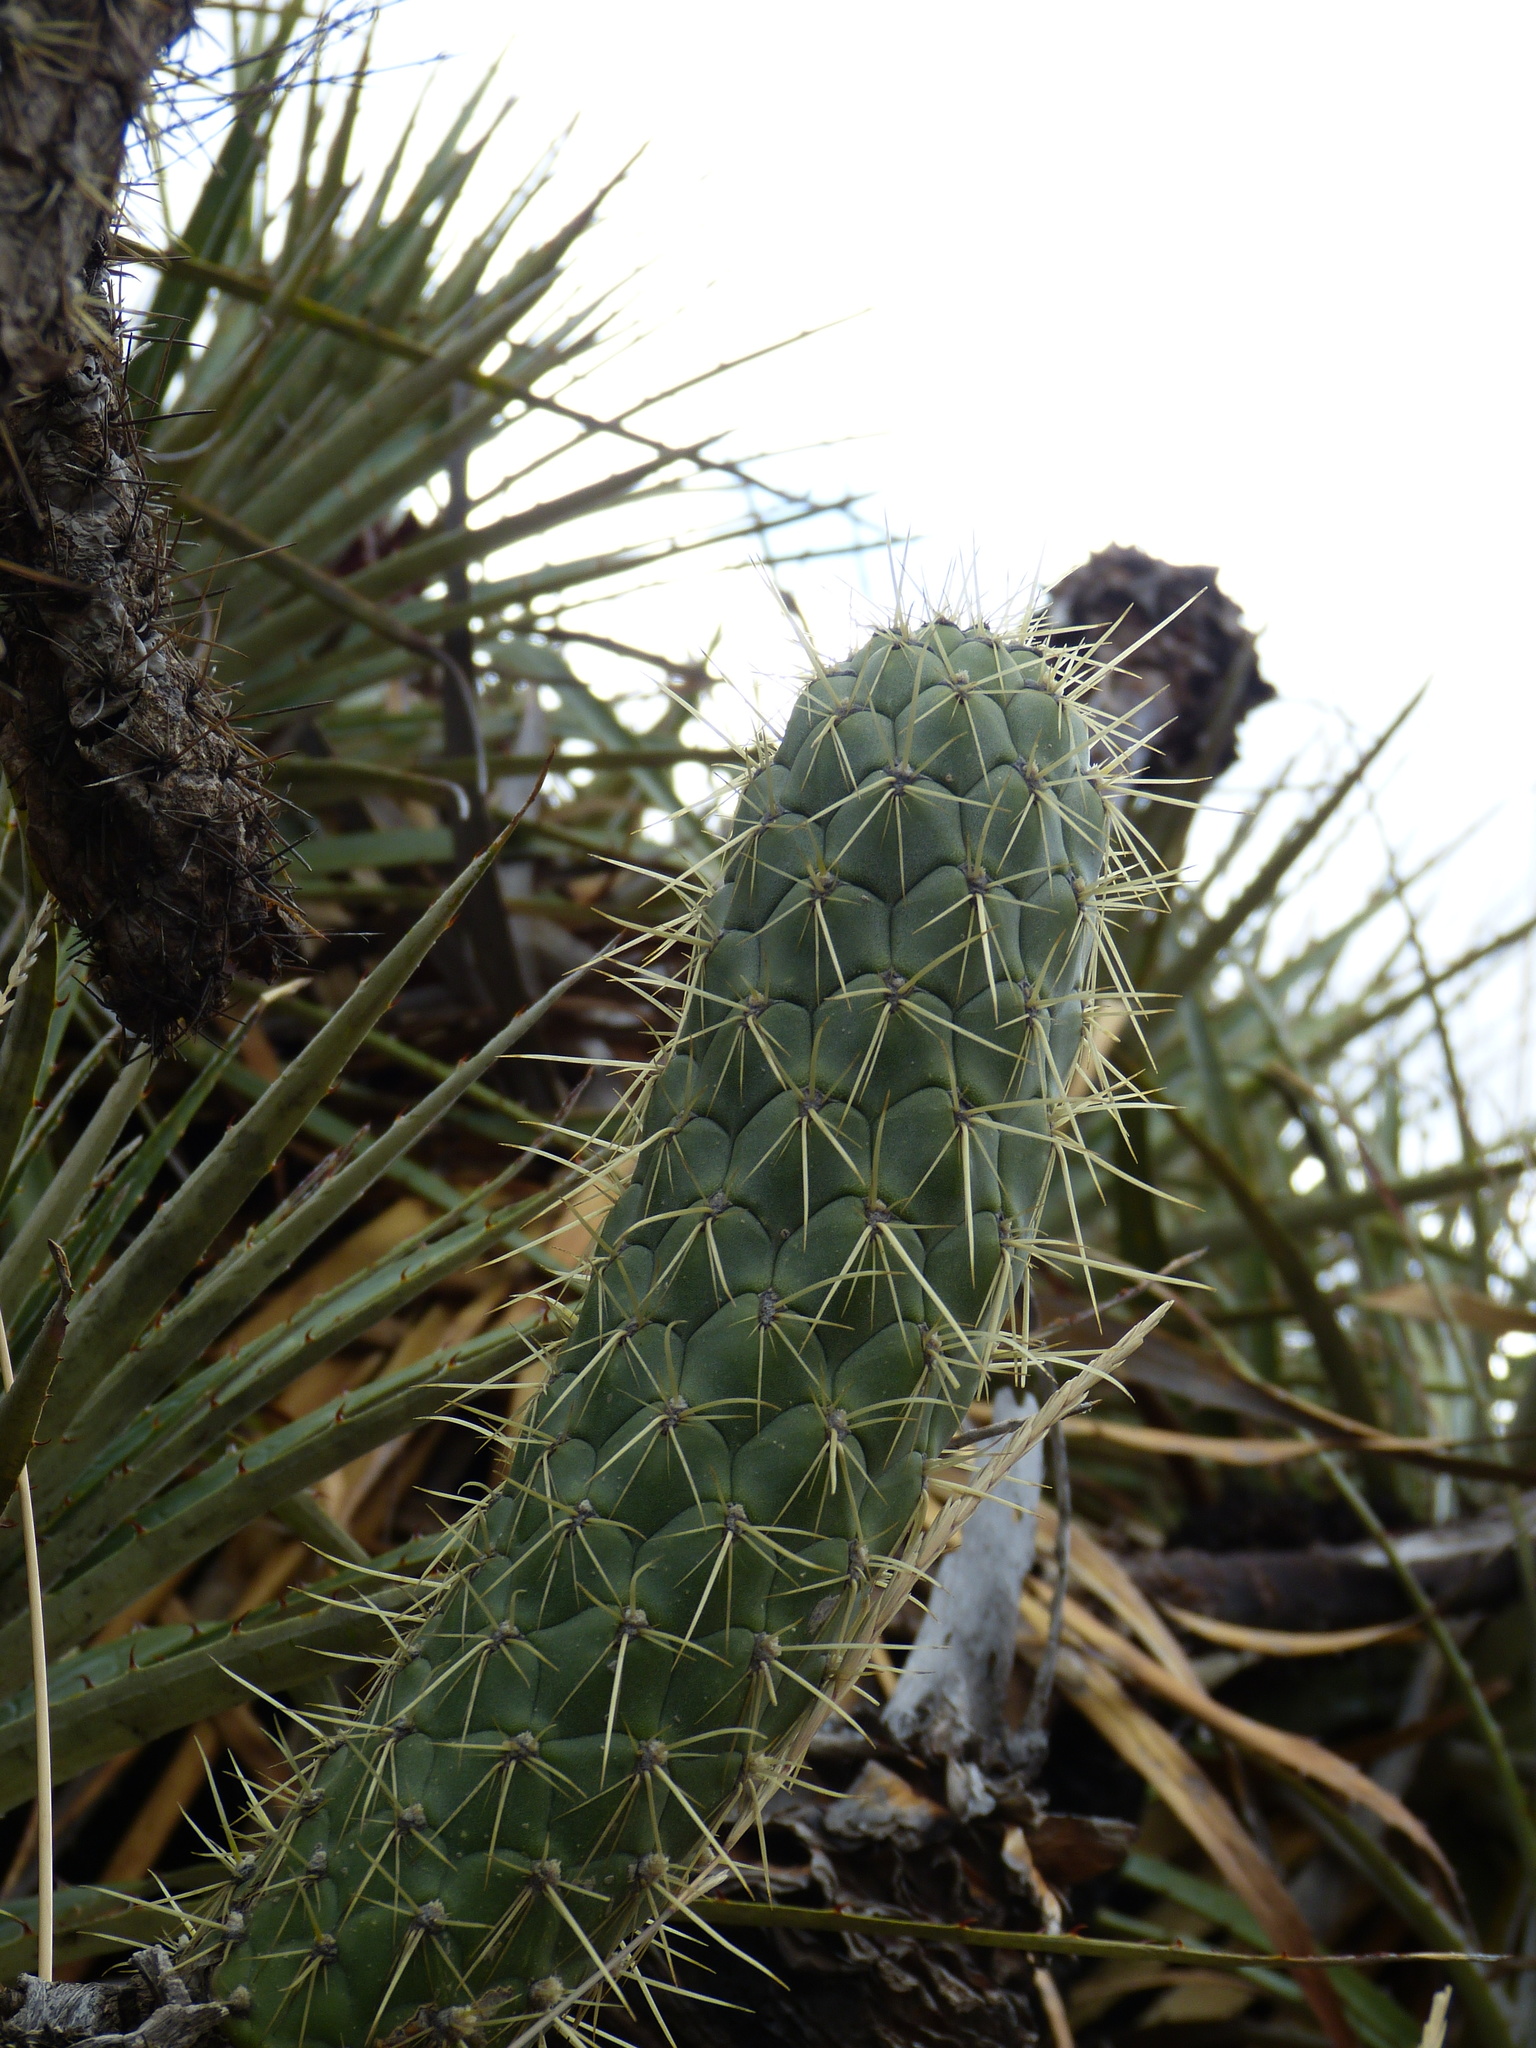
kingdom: Plantae
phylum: Tracheophyta
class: Magnoliopsida
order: Caryophyllales
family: Cactaceae
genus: Austrocylindropuntia
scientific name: Austrocylindropuntia cylindrica
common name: Cane cactus
